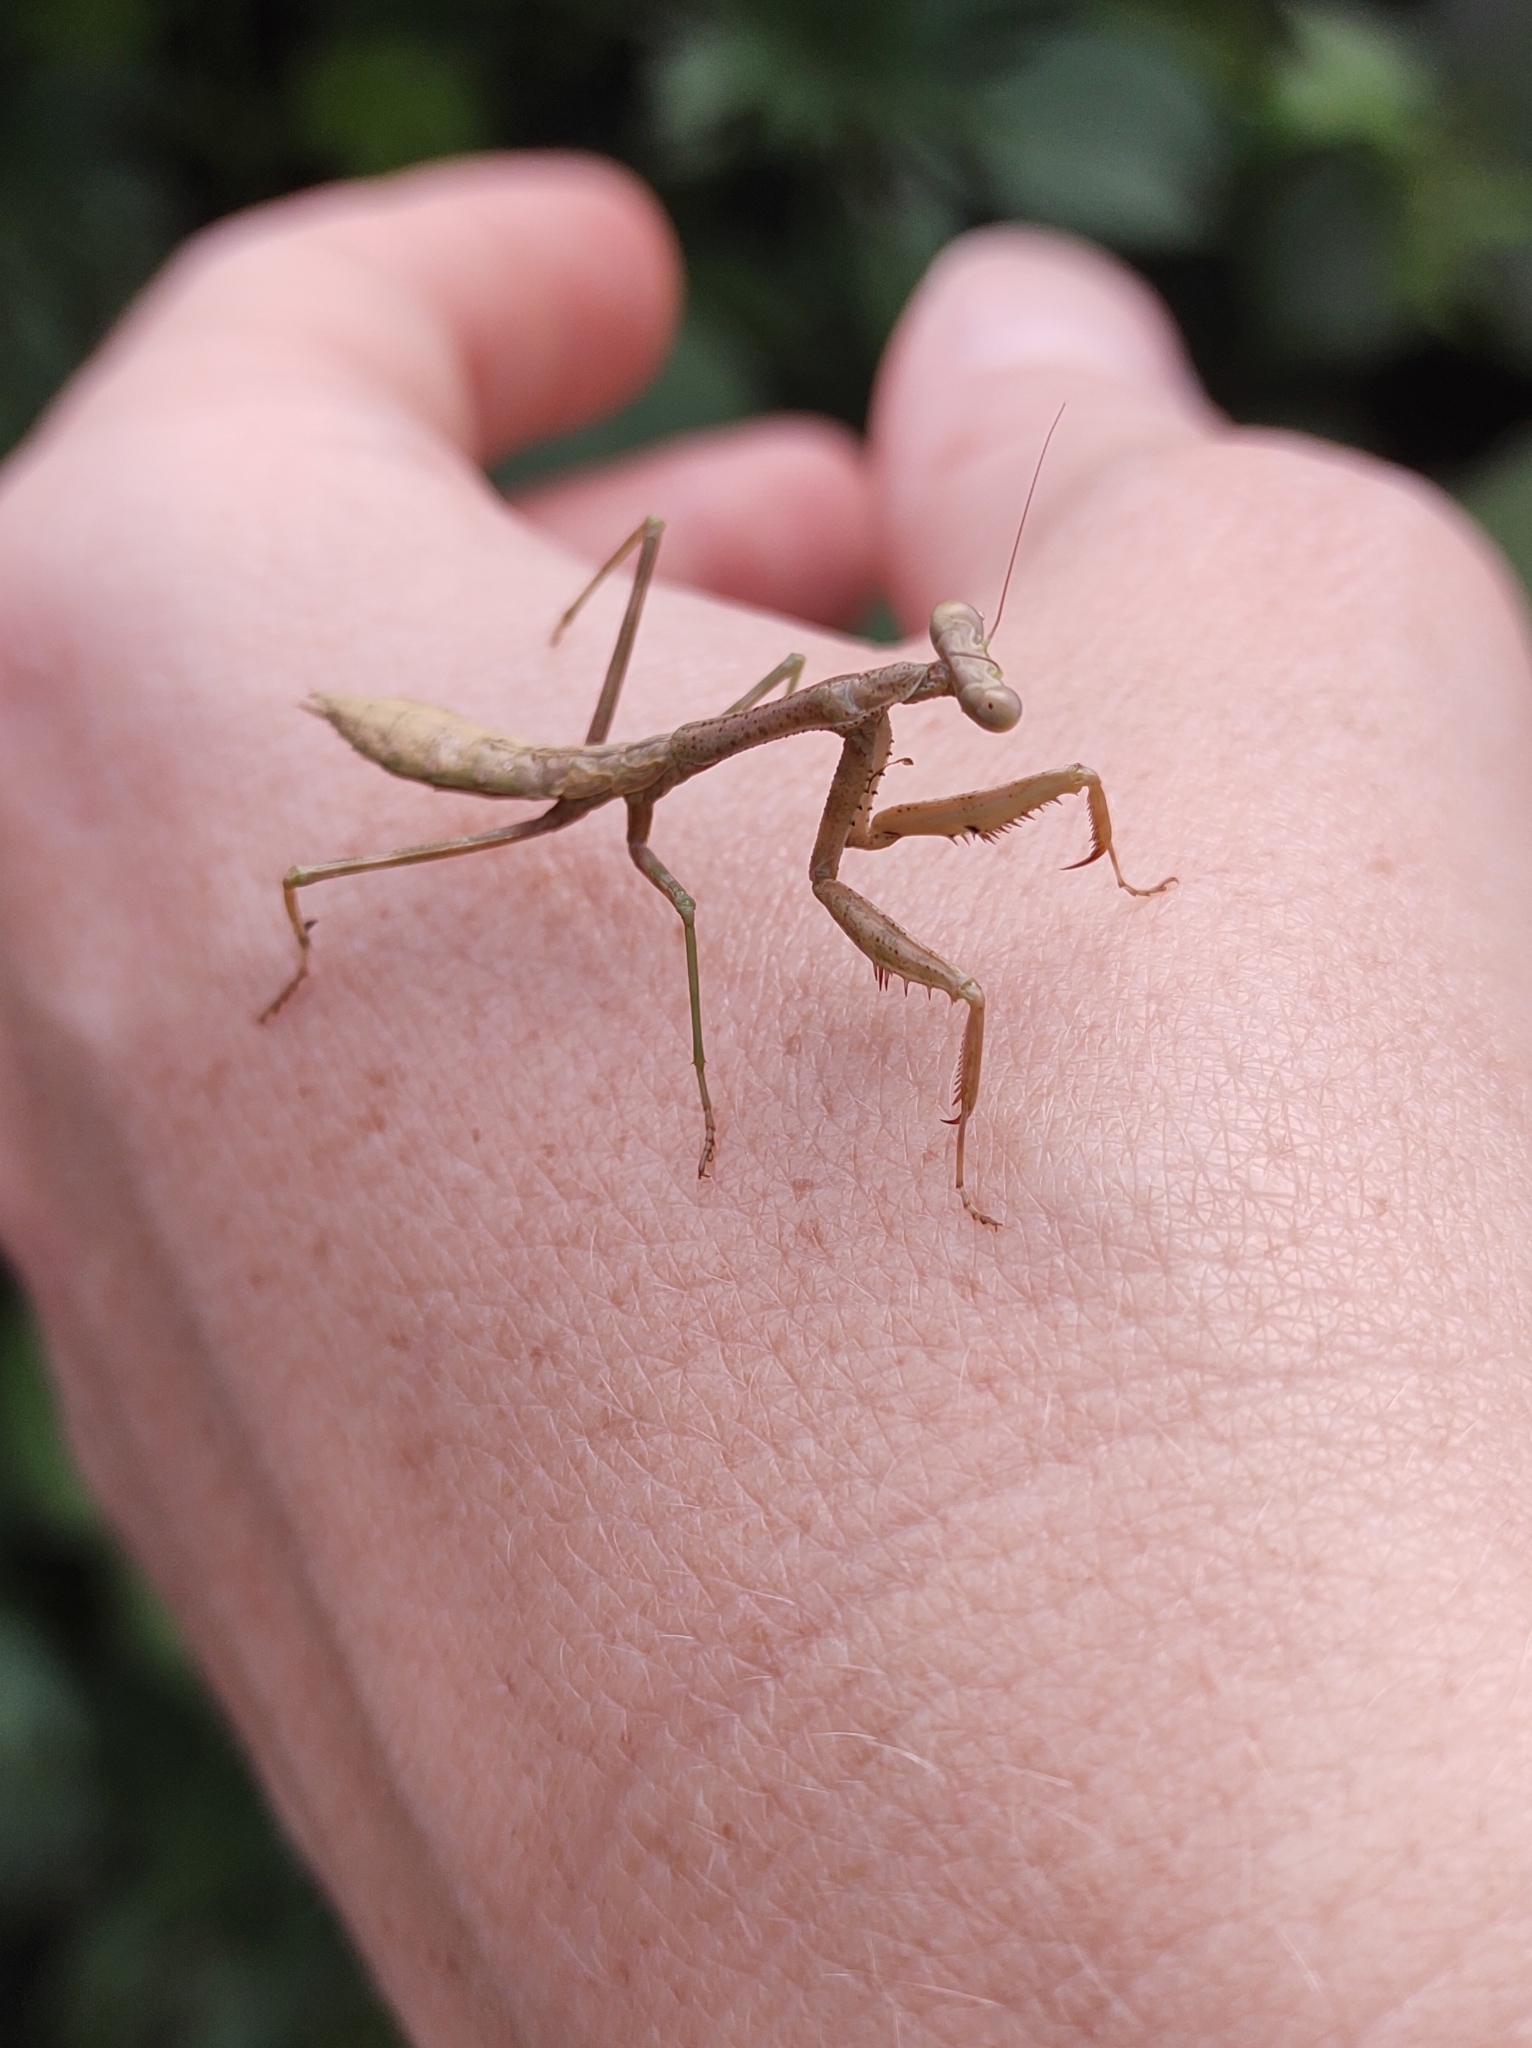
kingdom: Animalia
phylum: Arthropoda
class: Insecta
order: Mantodea
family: Mantidae
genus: Stagmomantis
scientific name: Stagmomantis carolina
